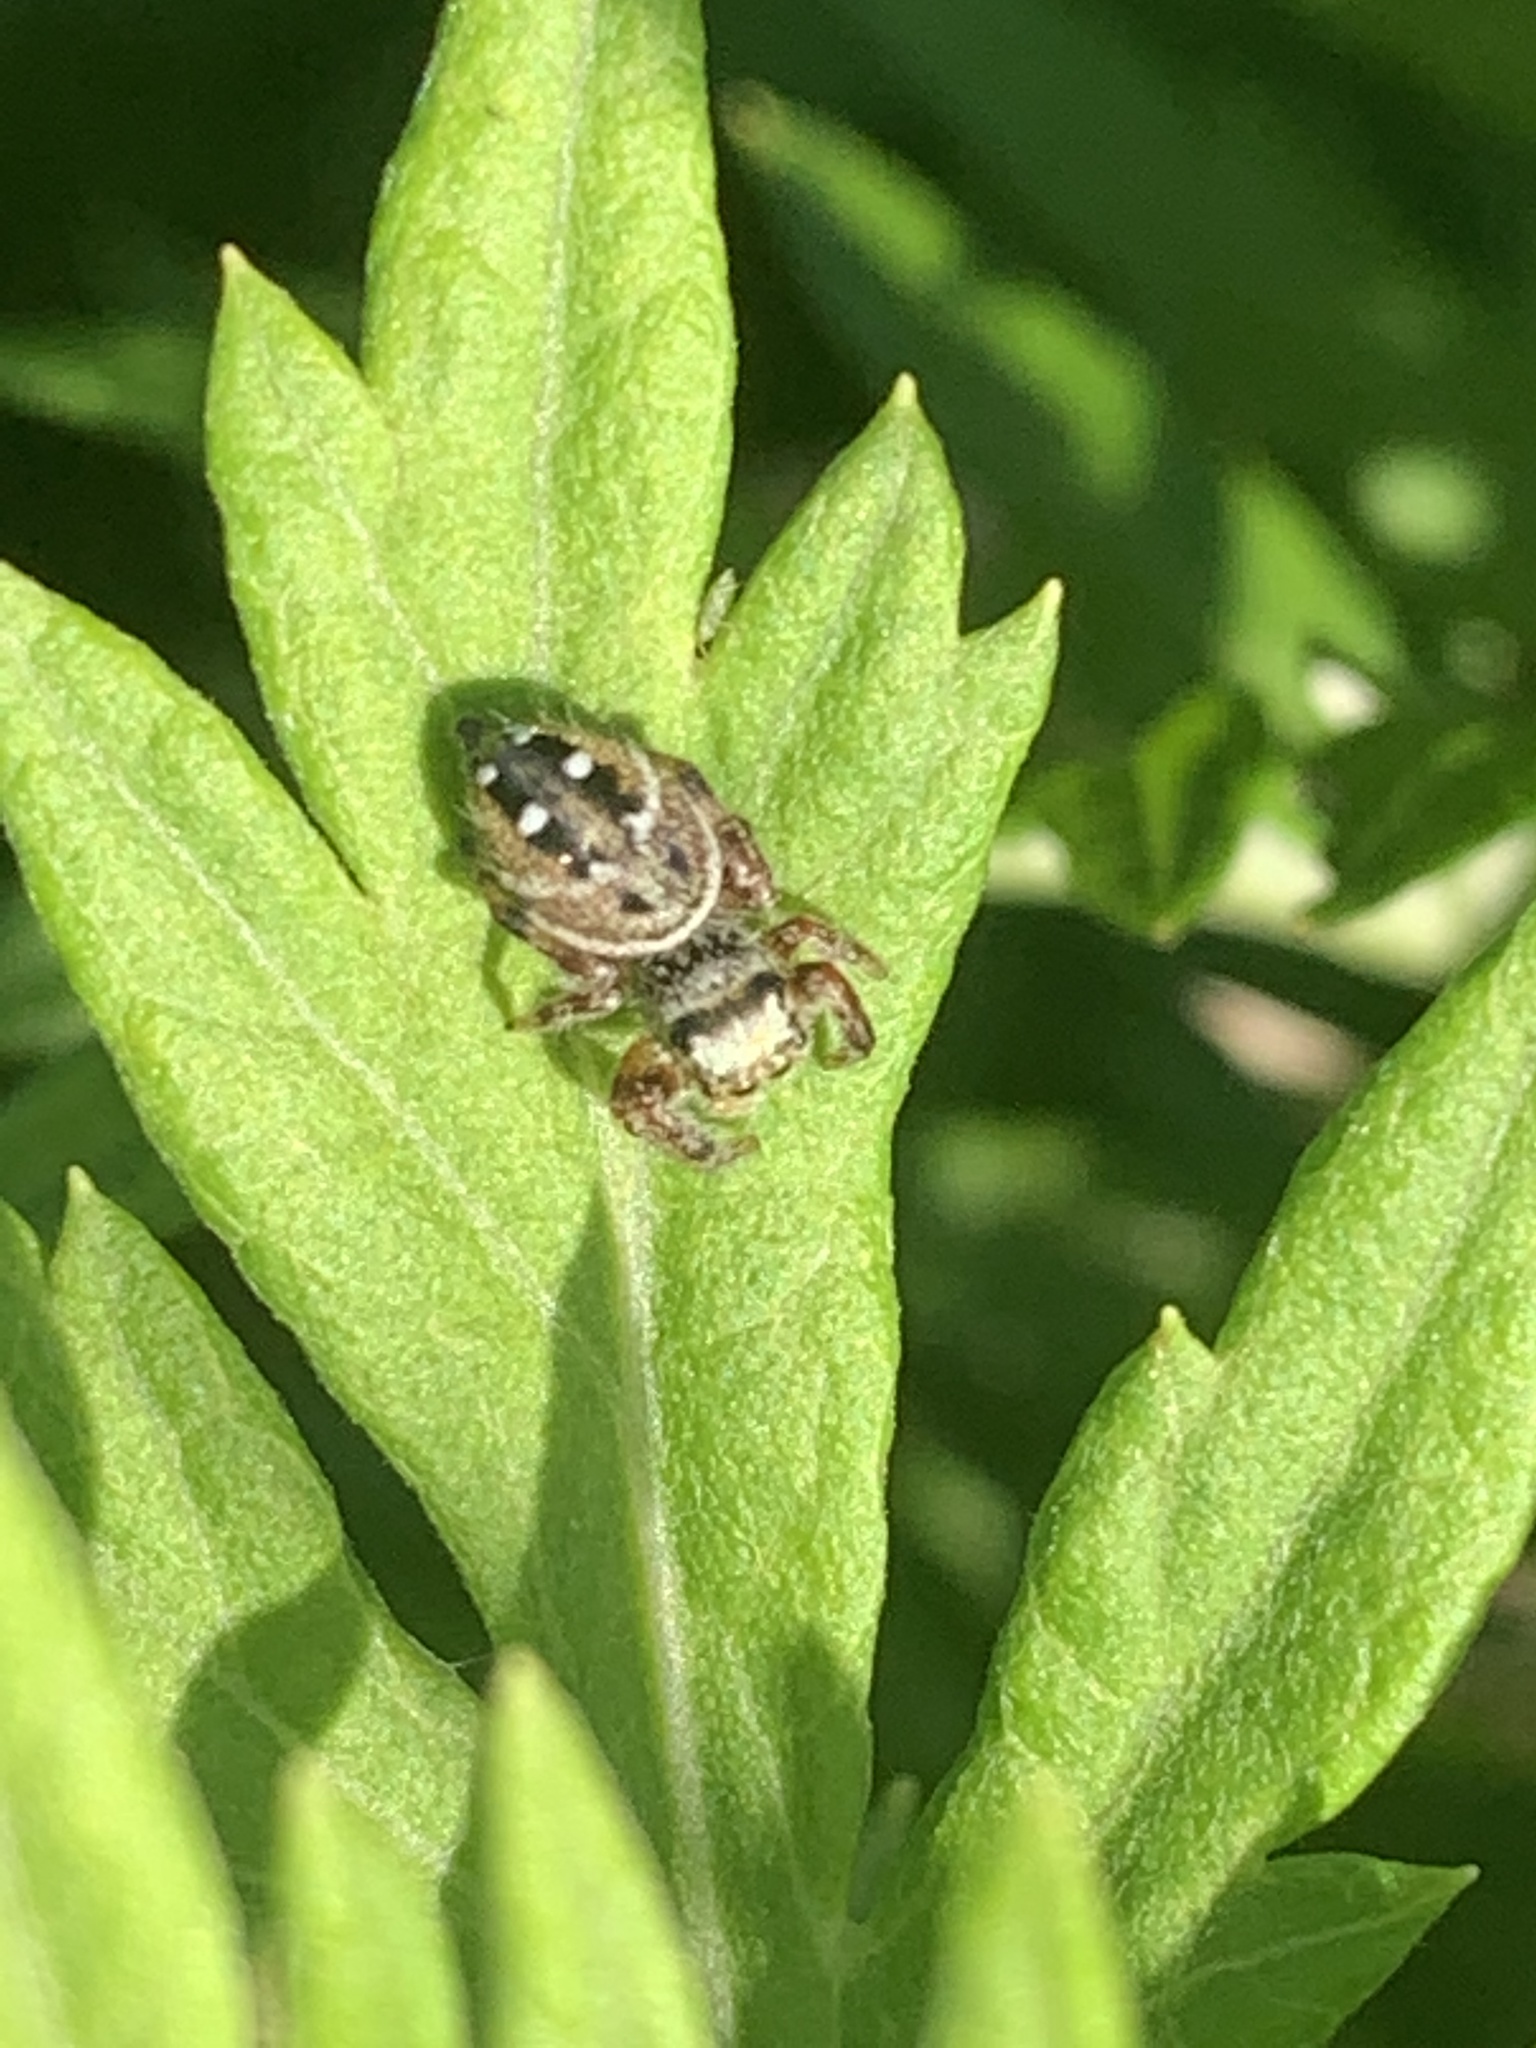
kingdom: Animalia
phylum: Arthropoda
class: Arachnida
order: Araneae
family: Salticidae
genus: Phidippus
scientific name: Phidippus clarus
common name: Brilliant jumping spider
